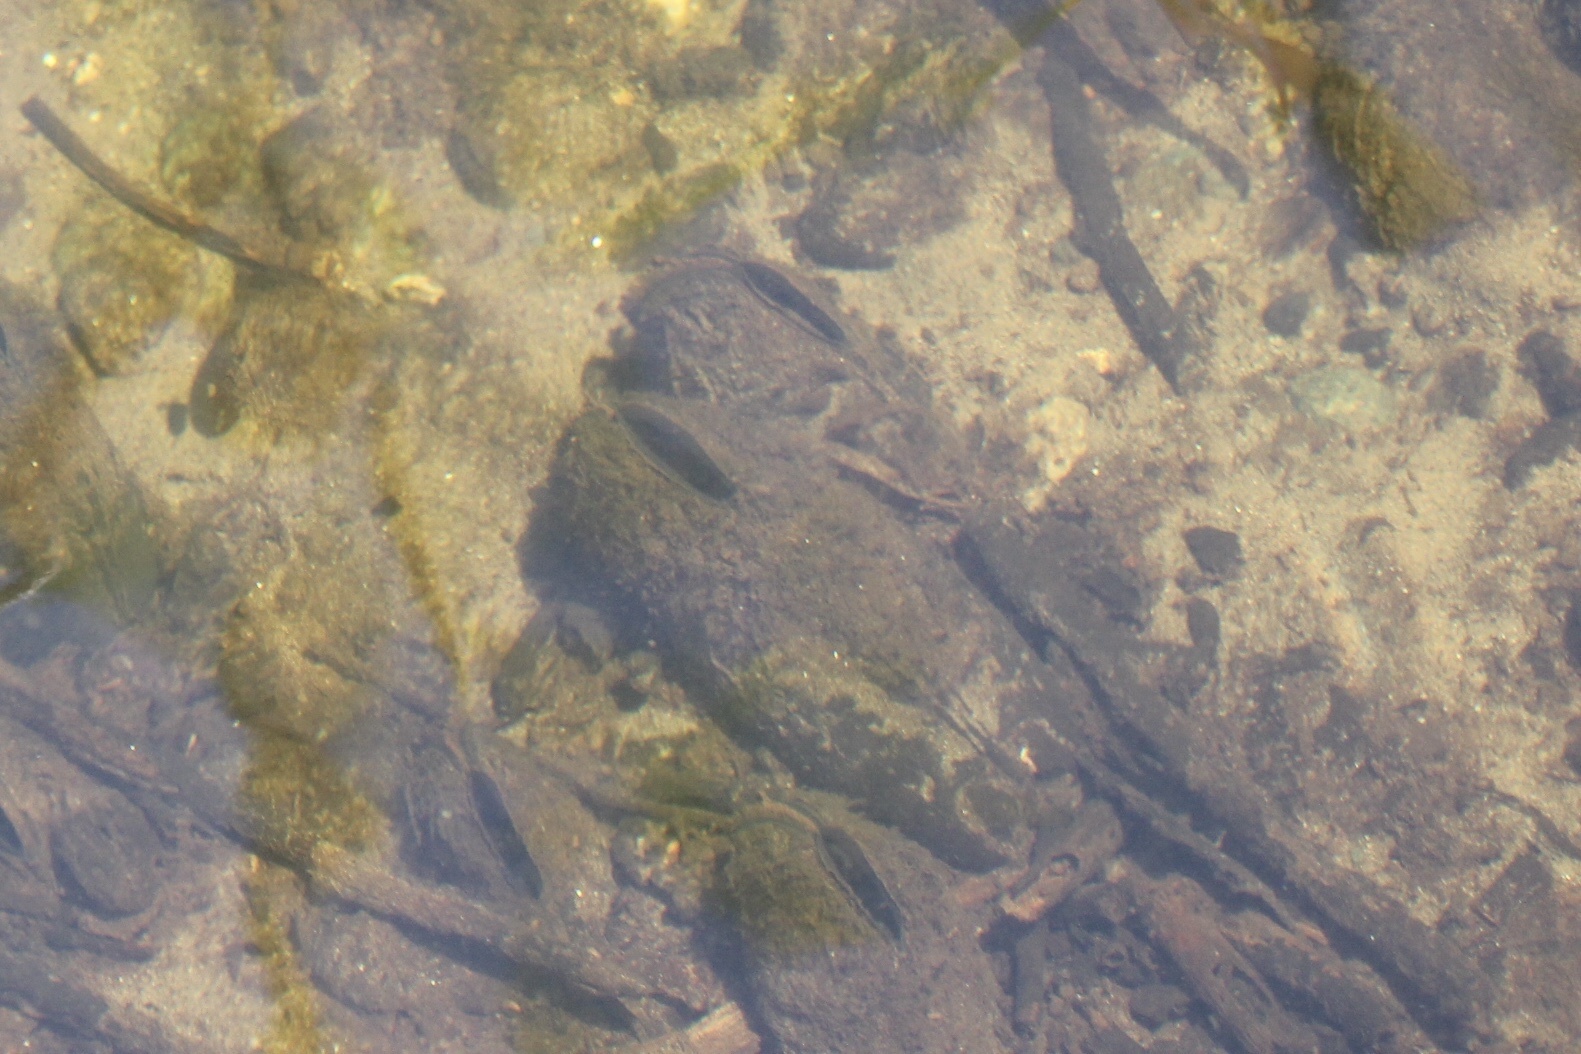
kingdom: Animalia
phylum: Mollusca
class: Bivalvia
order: Unionida
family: Margaritiferidae
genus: Margaritifera
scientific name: Margaritifera falcata
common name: Western pearlshell
